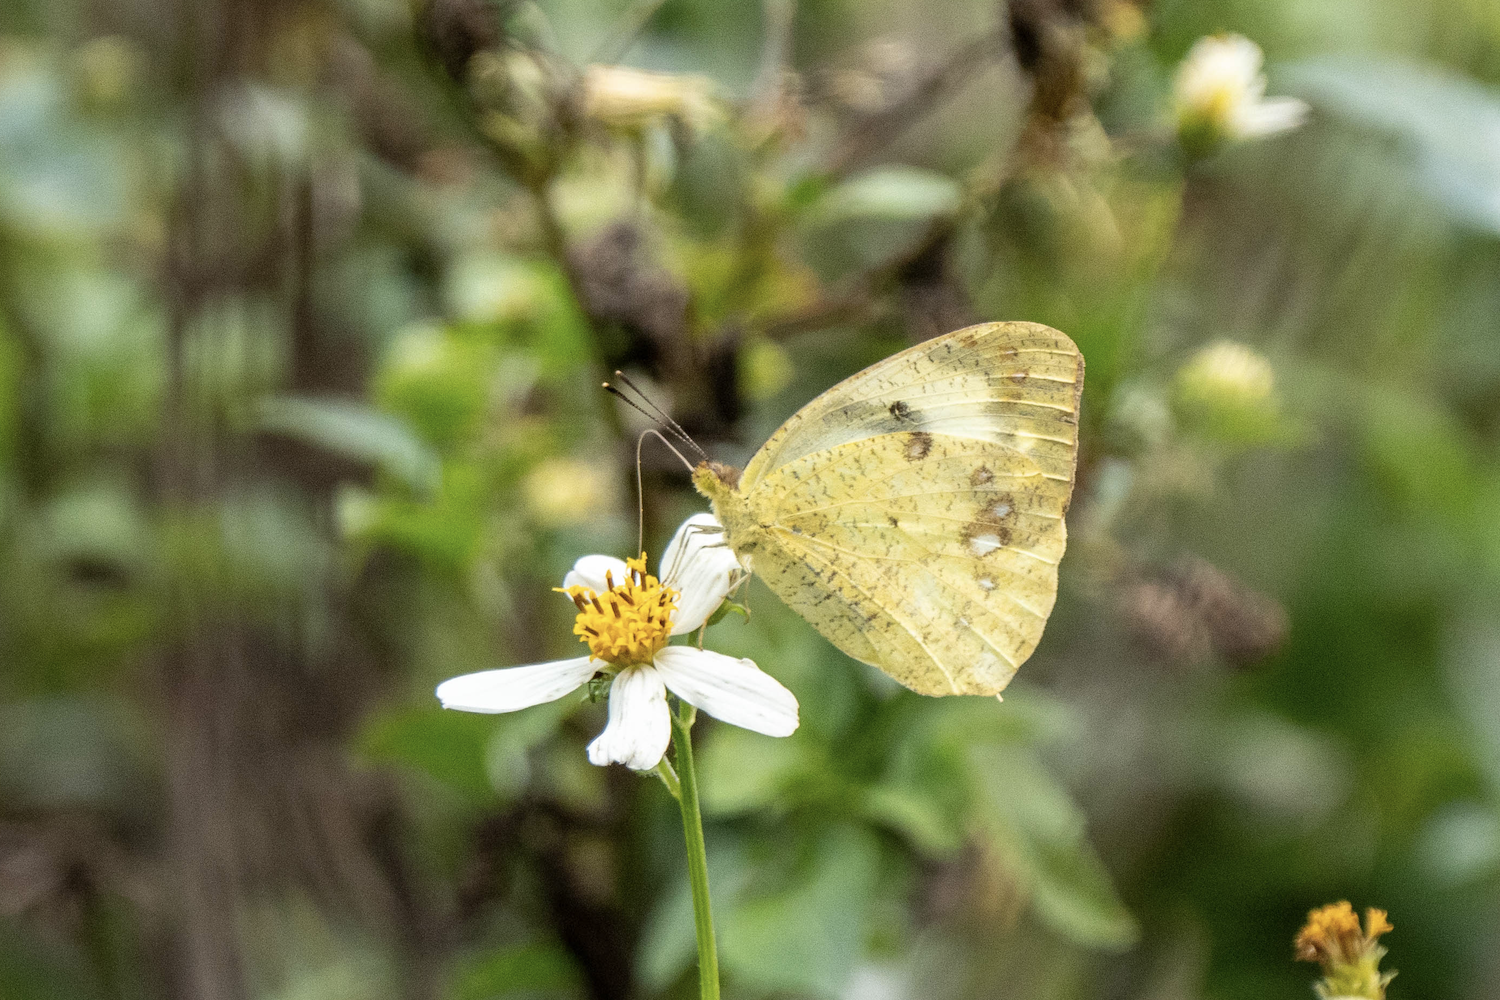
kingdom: Animalia
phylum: Arthropoda
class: Insecta
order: Lepidoptera
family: Pieridae
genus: Ixias
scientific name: Ixias pyrene
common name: Yellow orange tip
